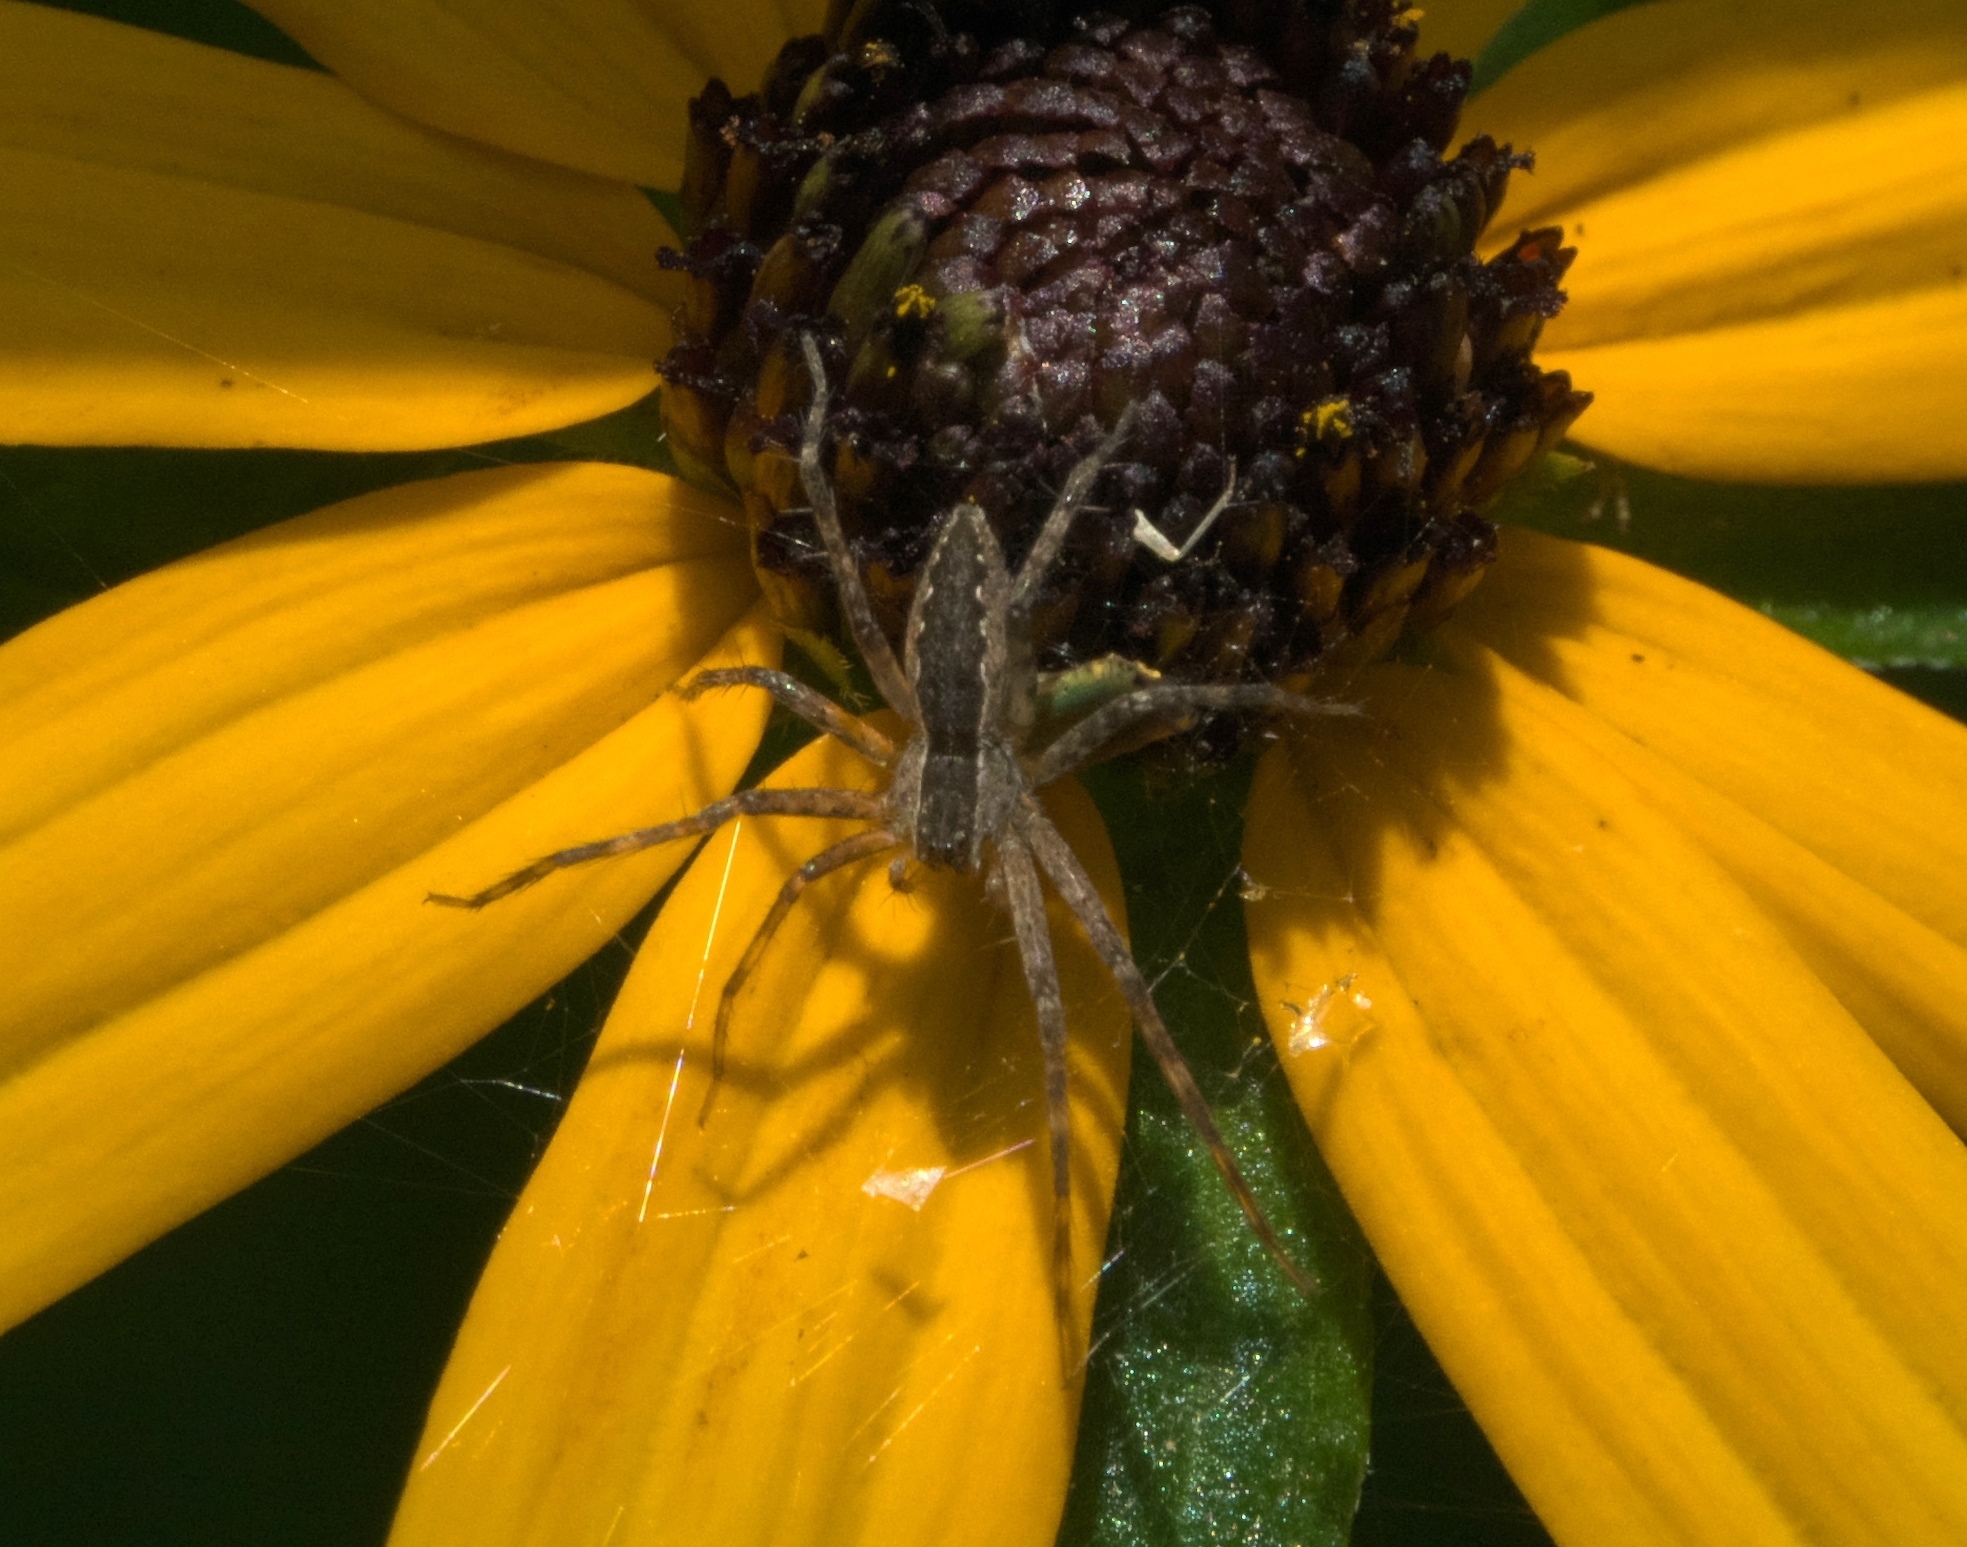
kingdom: Animalia
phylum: Arthropoda
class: Arachnida
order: Araneae
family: Pisauridae
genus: Pisaurina
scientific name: Pisaurina mira
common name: American nursery web spider
